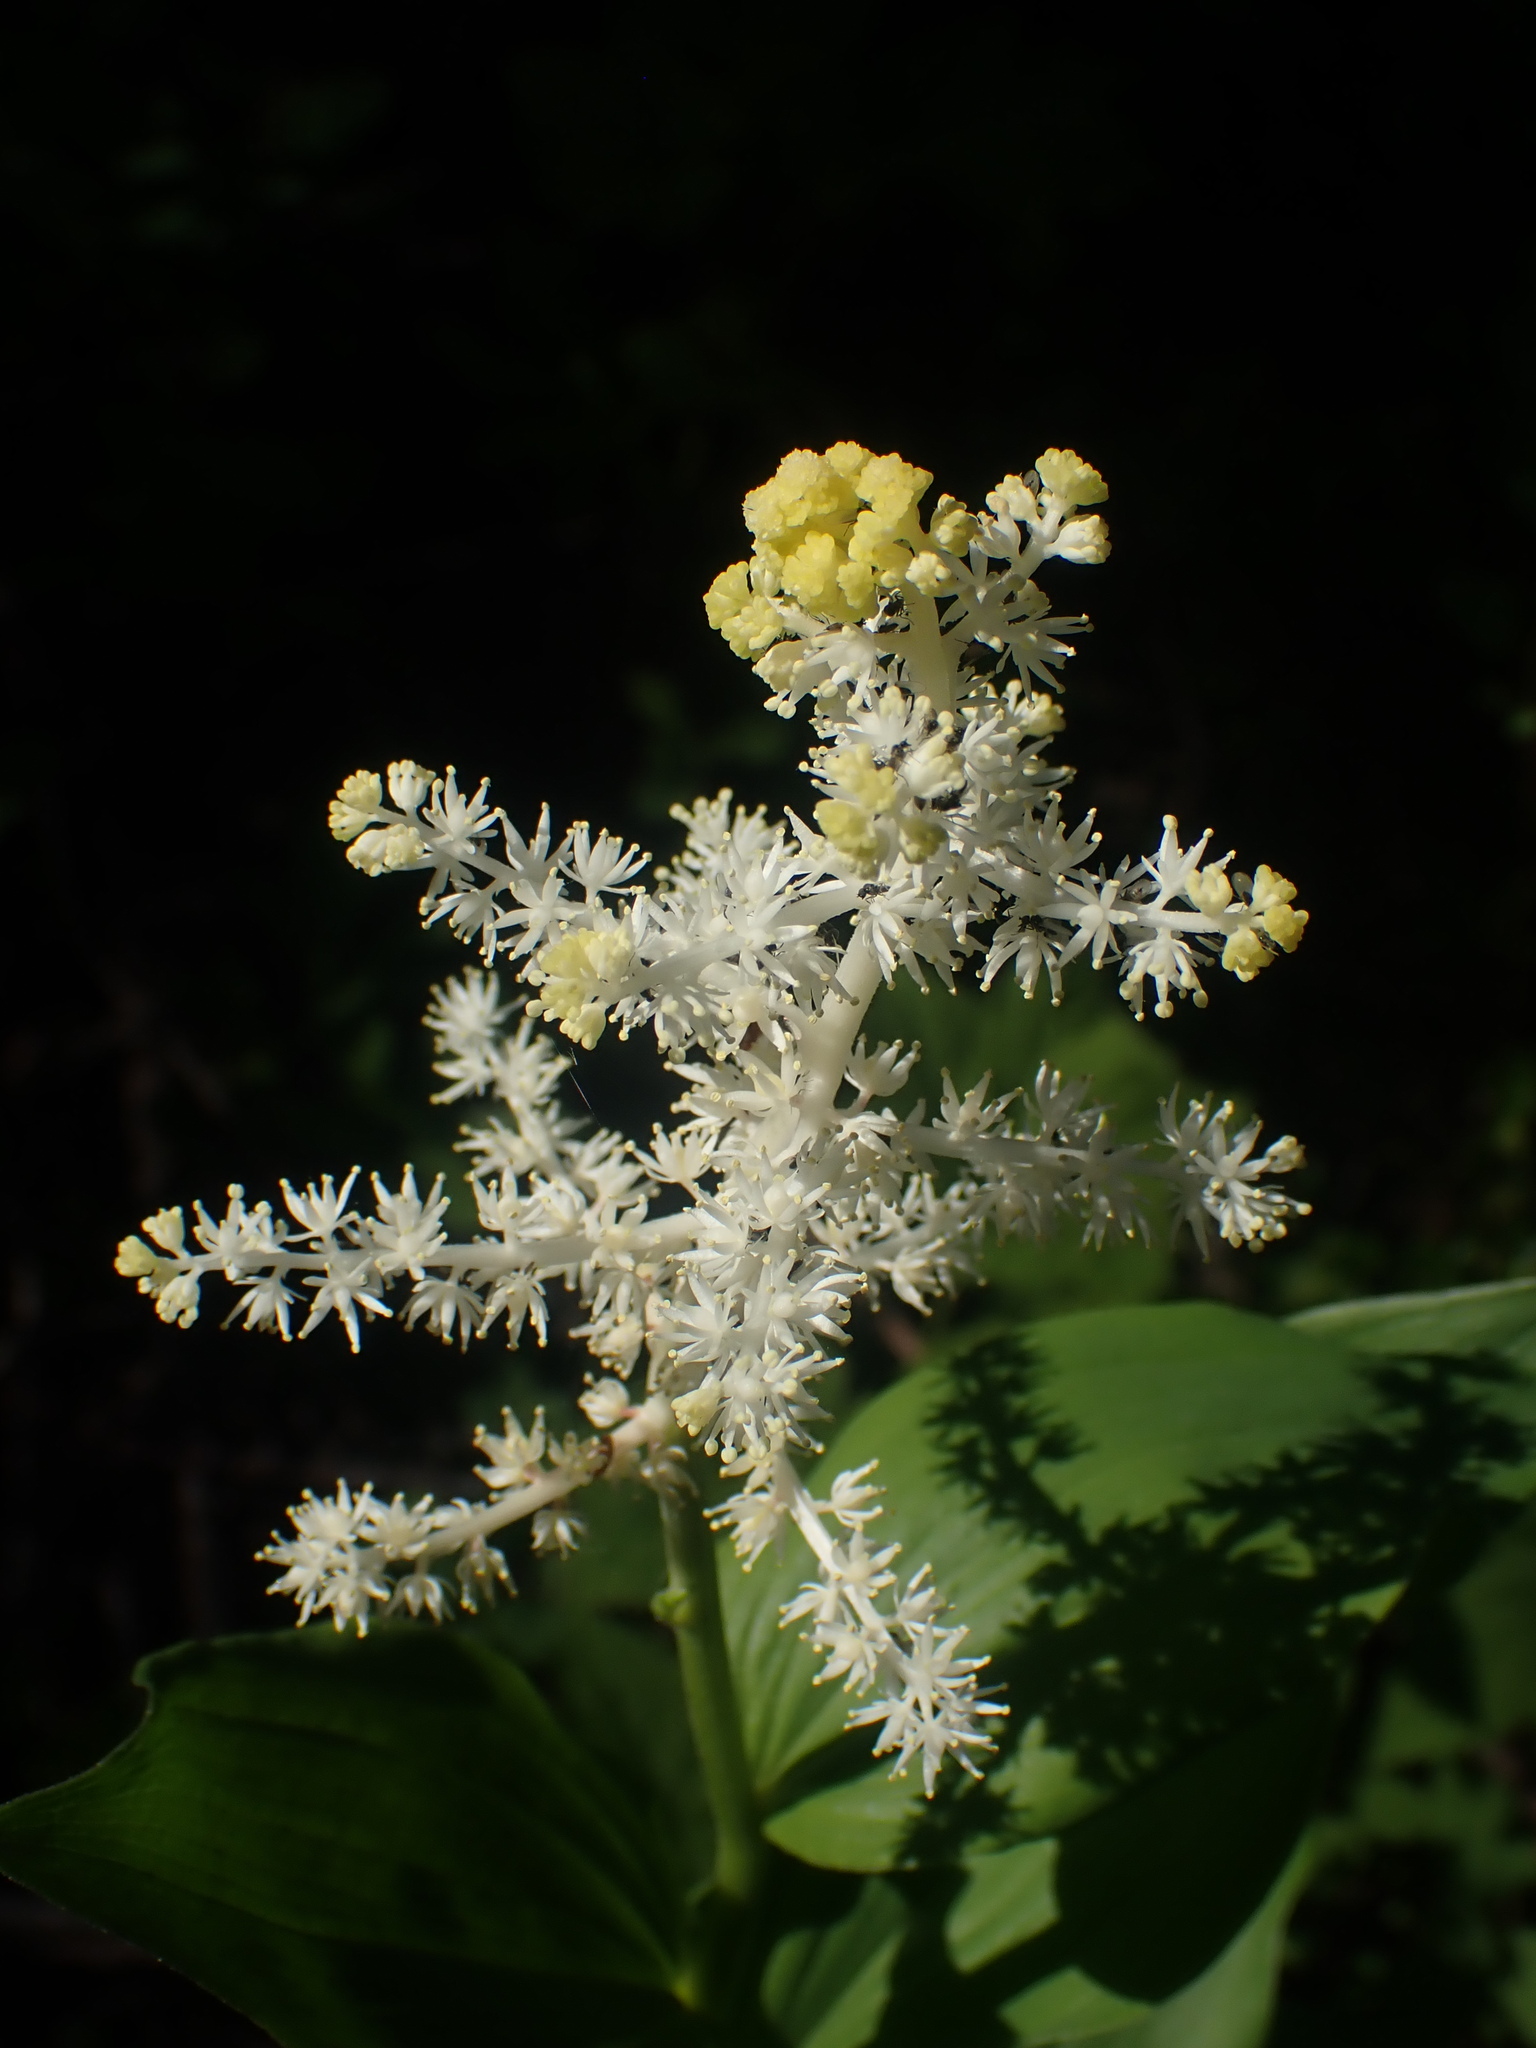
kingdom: Plantae
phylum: Tracheophyta
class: Liliopsida
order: Asparagales
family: Asparagaceae
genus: Maianthemum
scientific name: Maianthemum racemosum
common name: False spikenard
